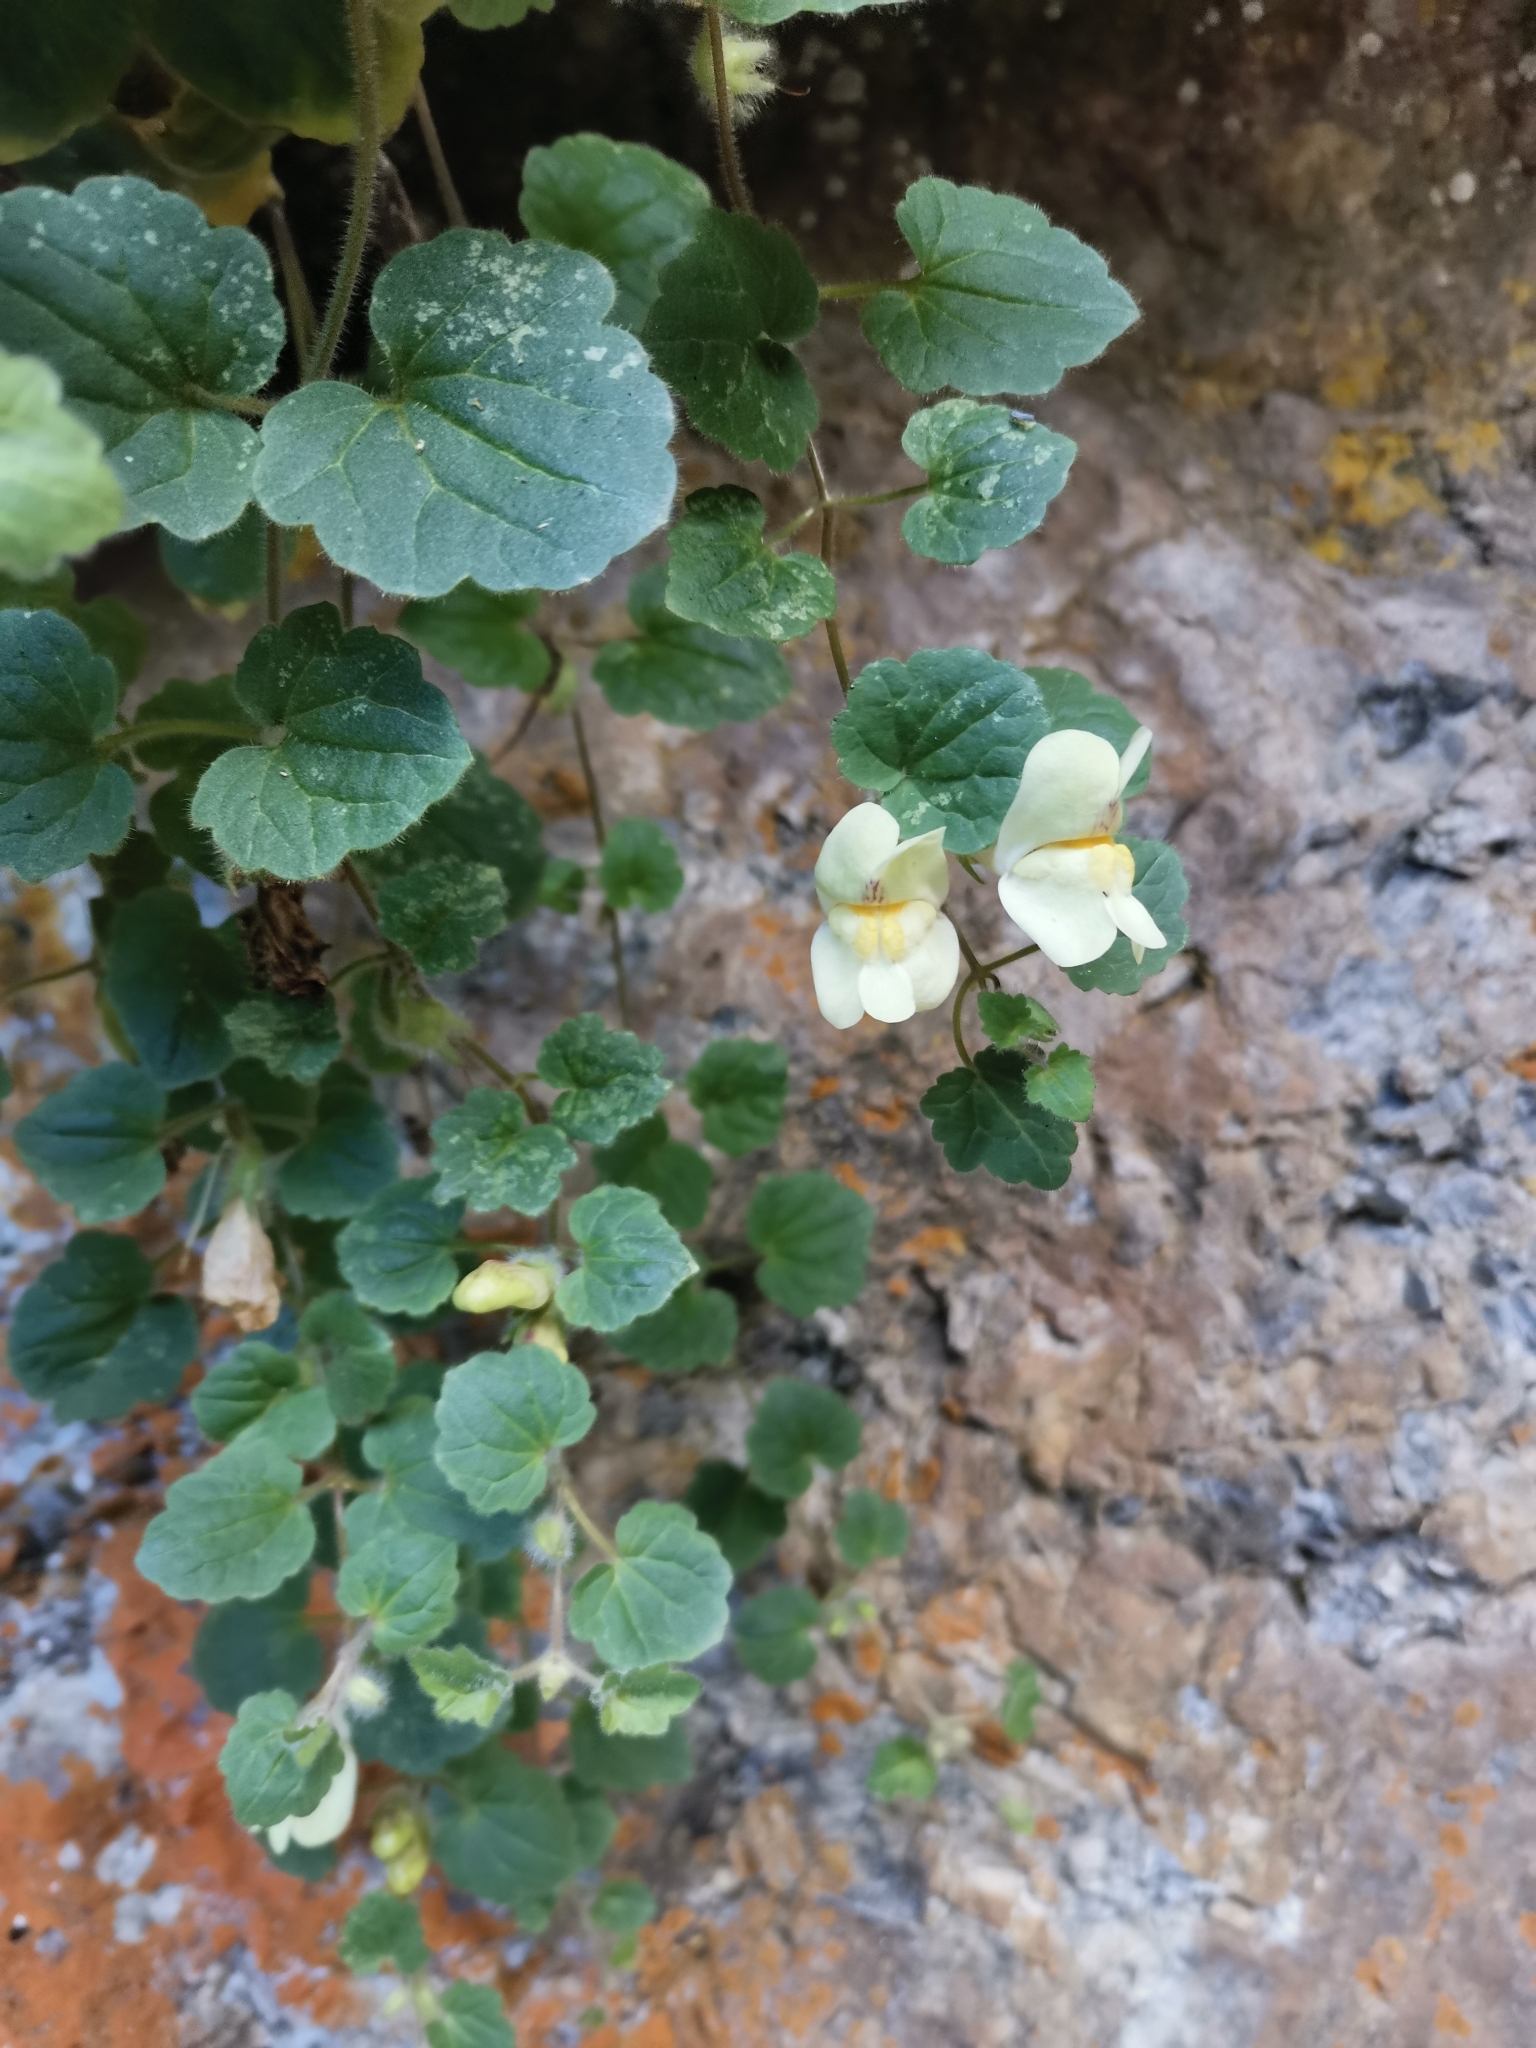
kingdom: Plantae
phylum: Tracheophyta
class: Magnoliopsida
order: Lamiales
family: Plantaginaceae
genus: Asarina
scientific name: Asarina procumbens
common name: Trailing snapdragon
